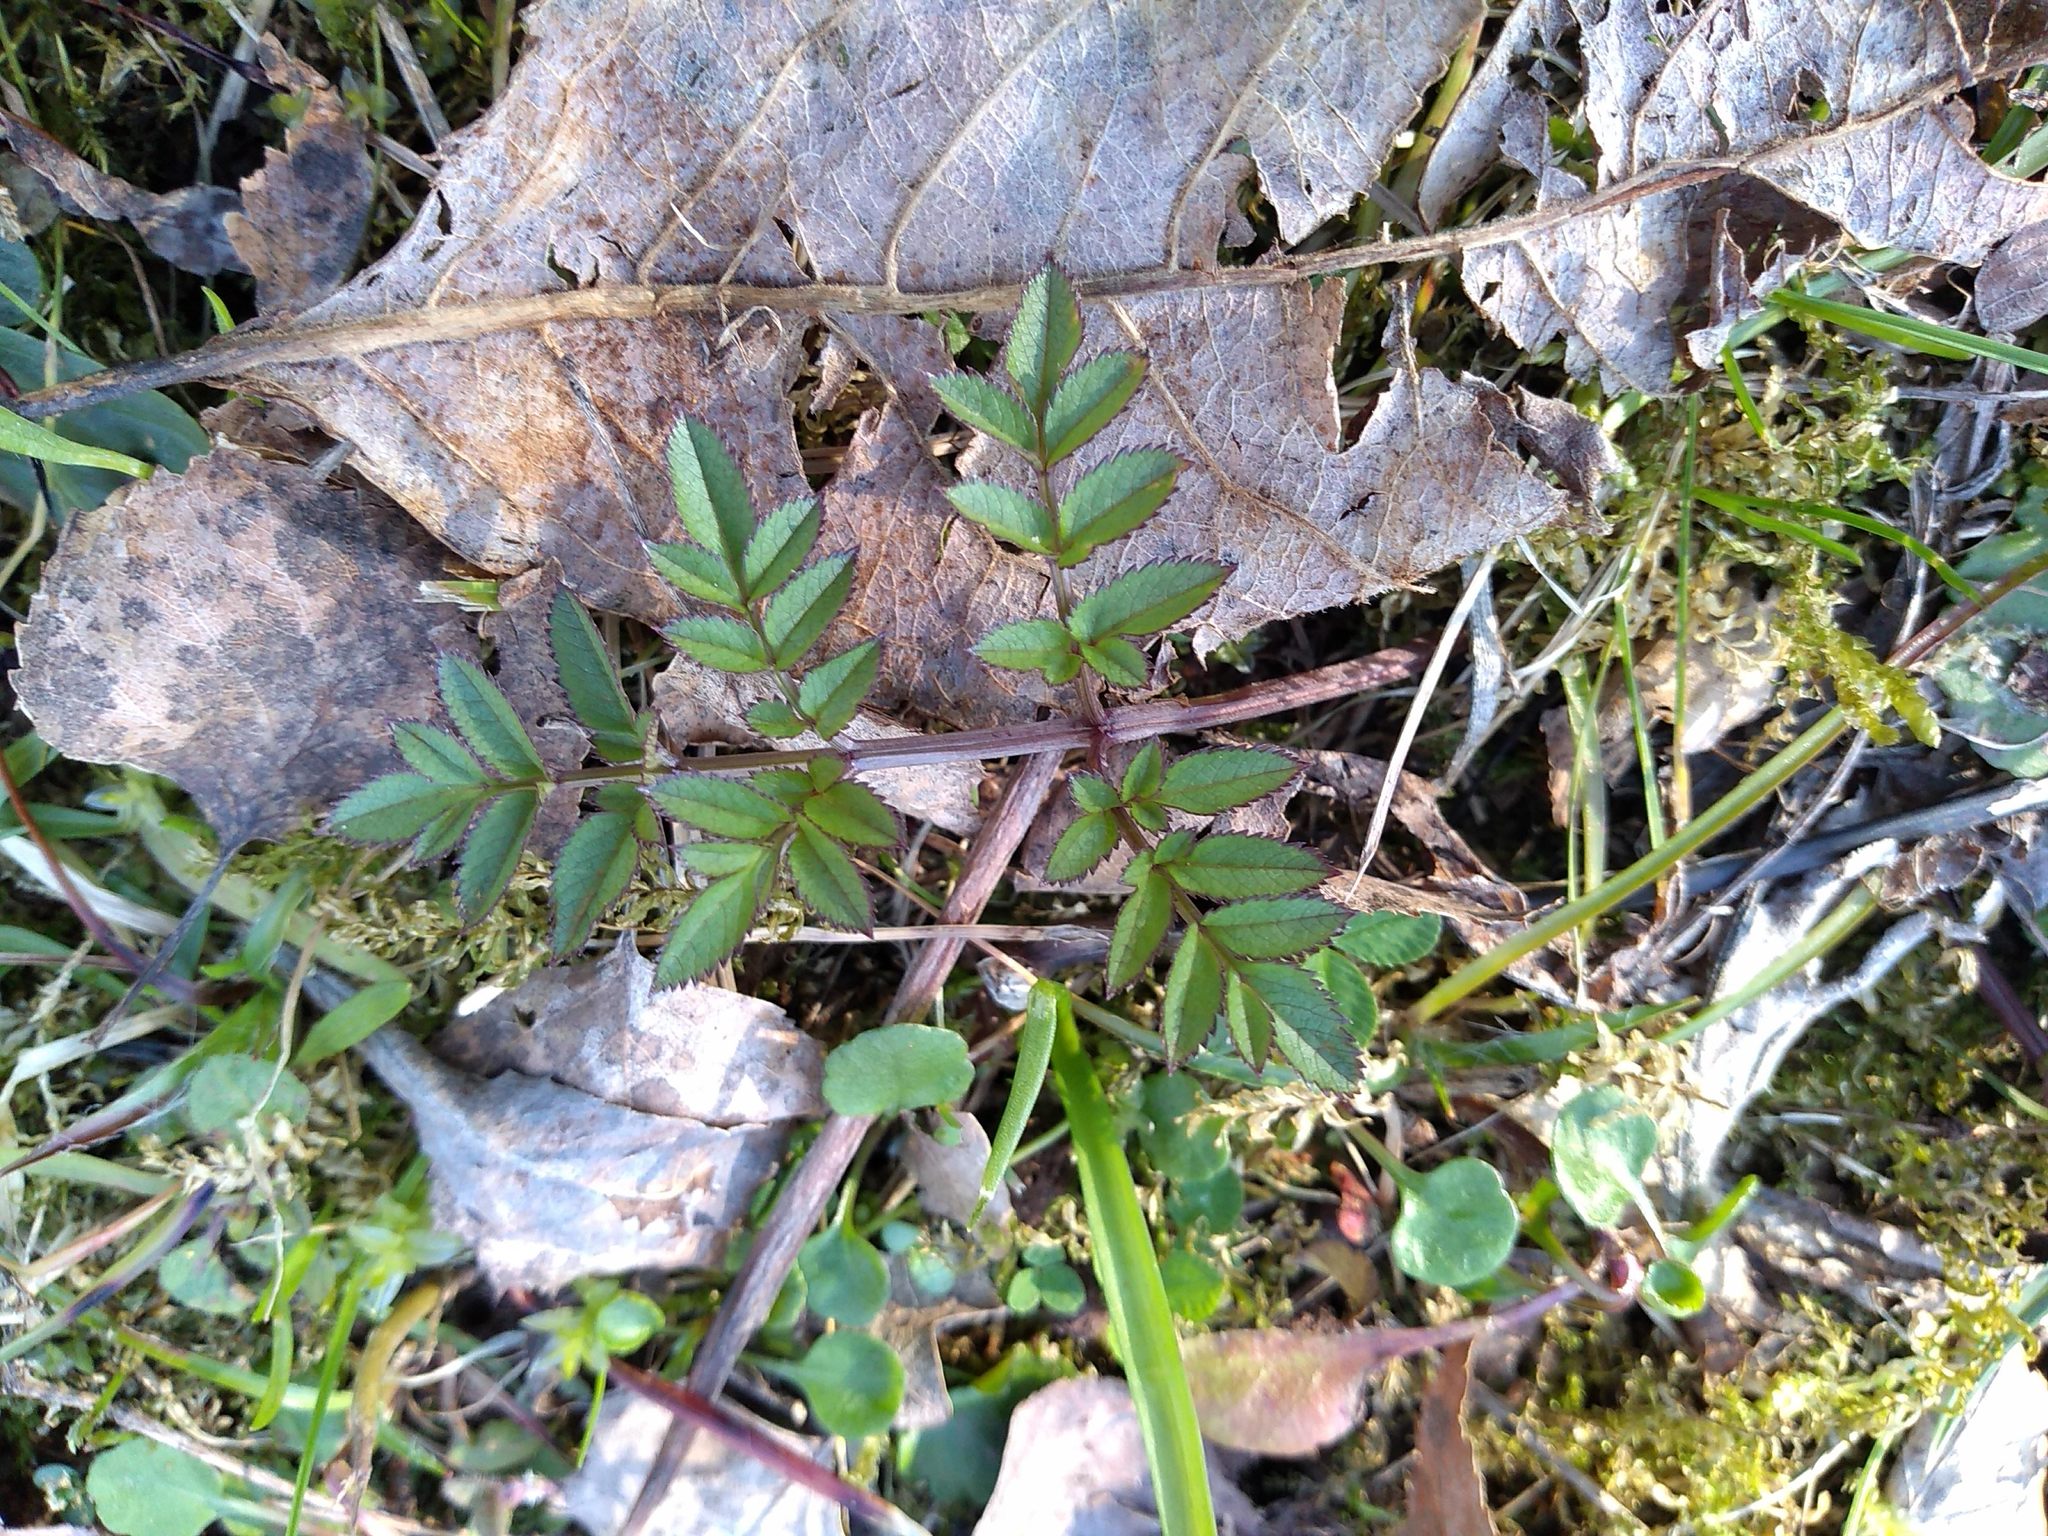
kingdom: Plantae
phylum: Tracheophyta
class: Magnoliopsida
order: Apiales
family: Apiaceae
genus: Angelica
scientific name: Angelica sylvestris
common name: Wild angelica
